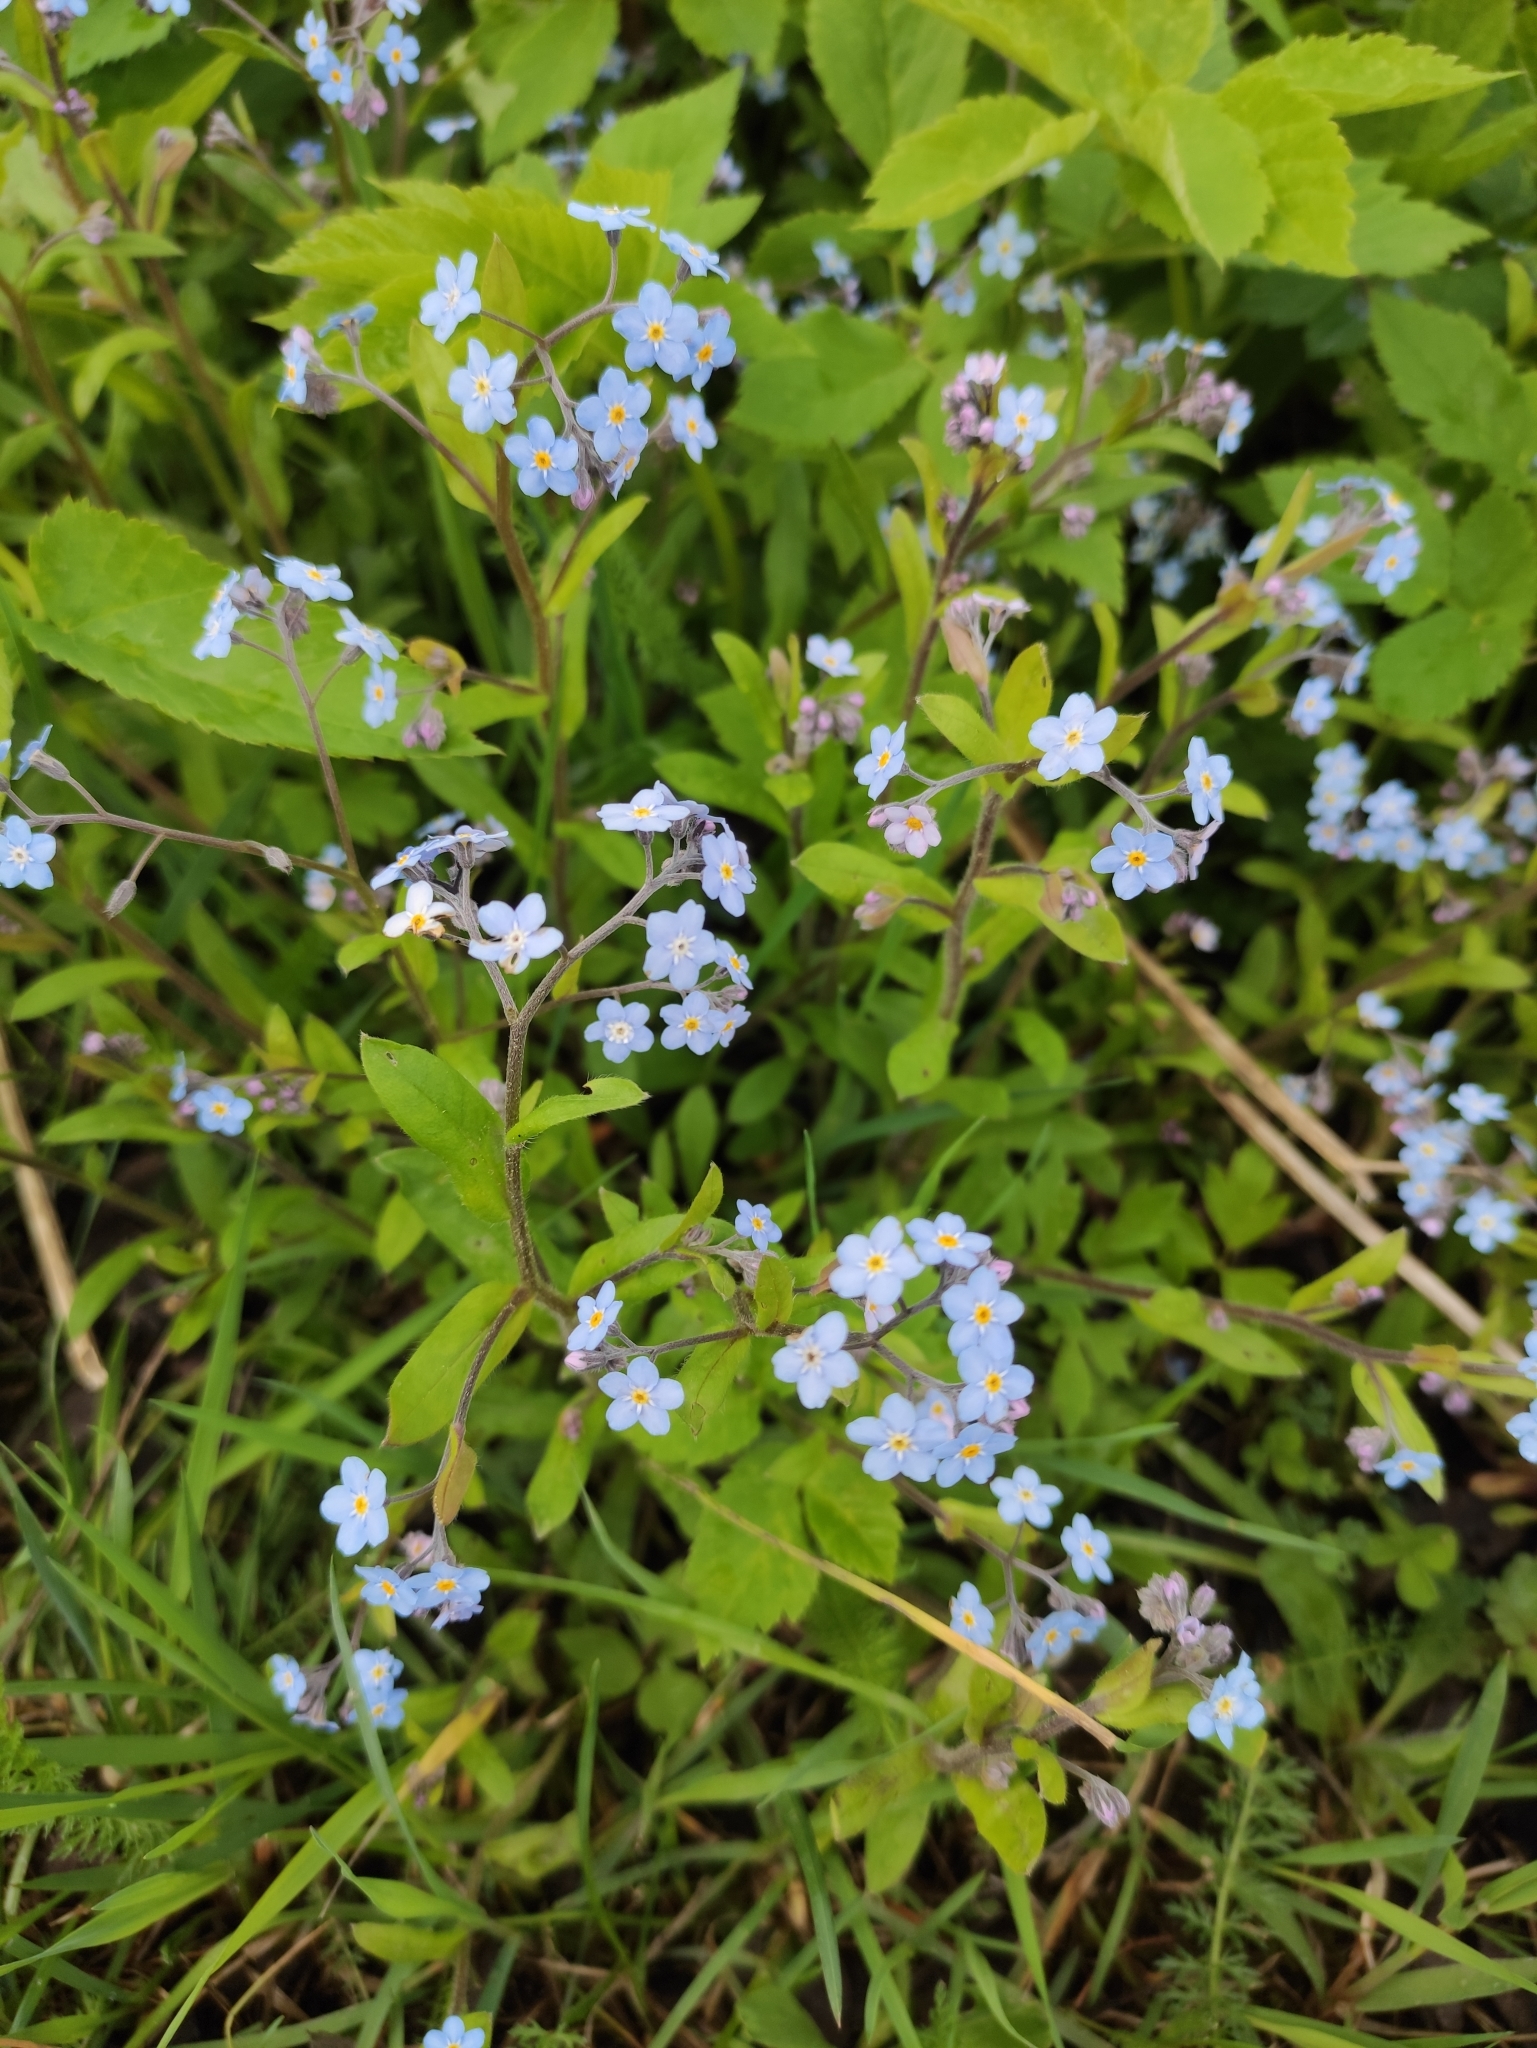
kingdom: Plantae
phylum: Tracheophyta
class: Magnoliopsida
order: Boraginales
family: Boraginaceae
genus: Myosotis
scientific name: Myosotis sylvatica
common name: Wood forget-me-not
